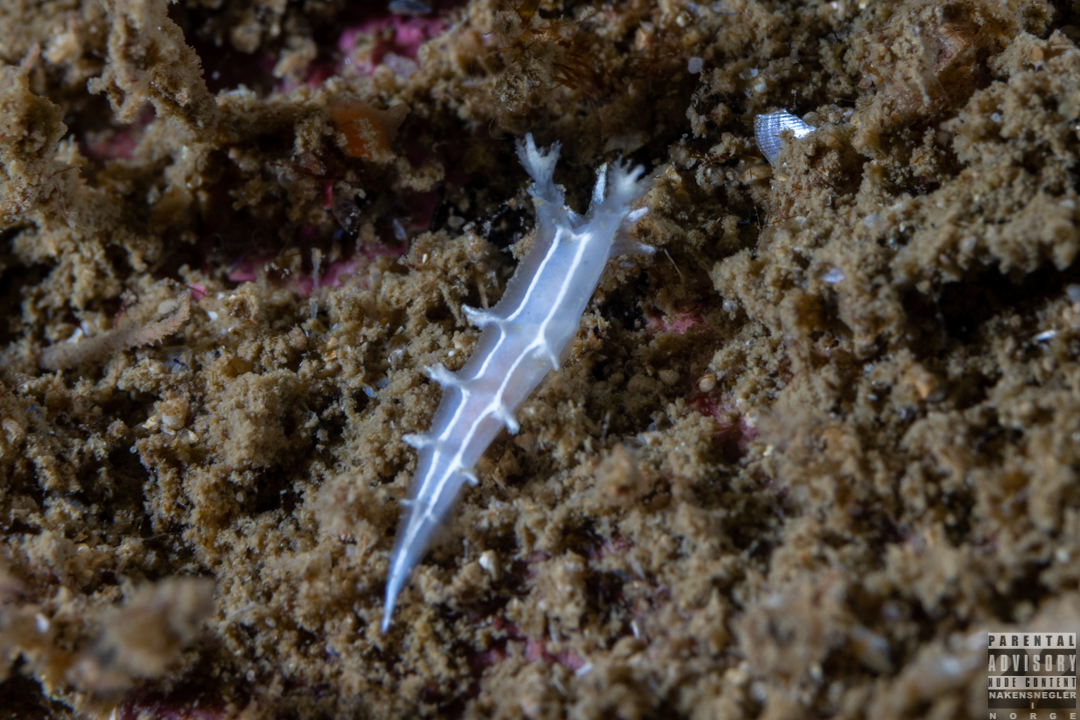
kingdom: Animalia
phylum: Mollusca
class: Gastropoda
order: Nudibranchia
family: Tritoniidae
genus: Duvaucelia
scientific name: Duvaucelia lineata
